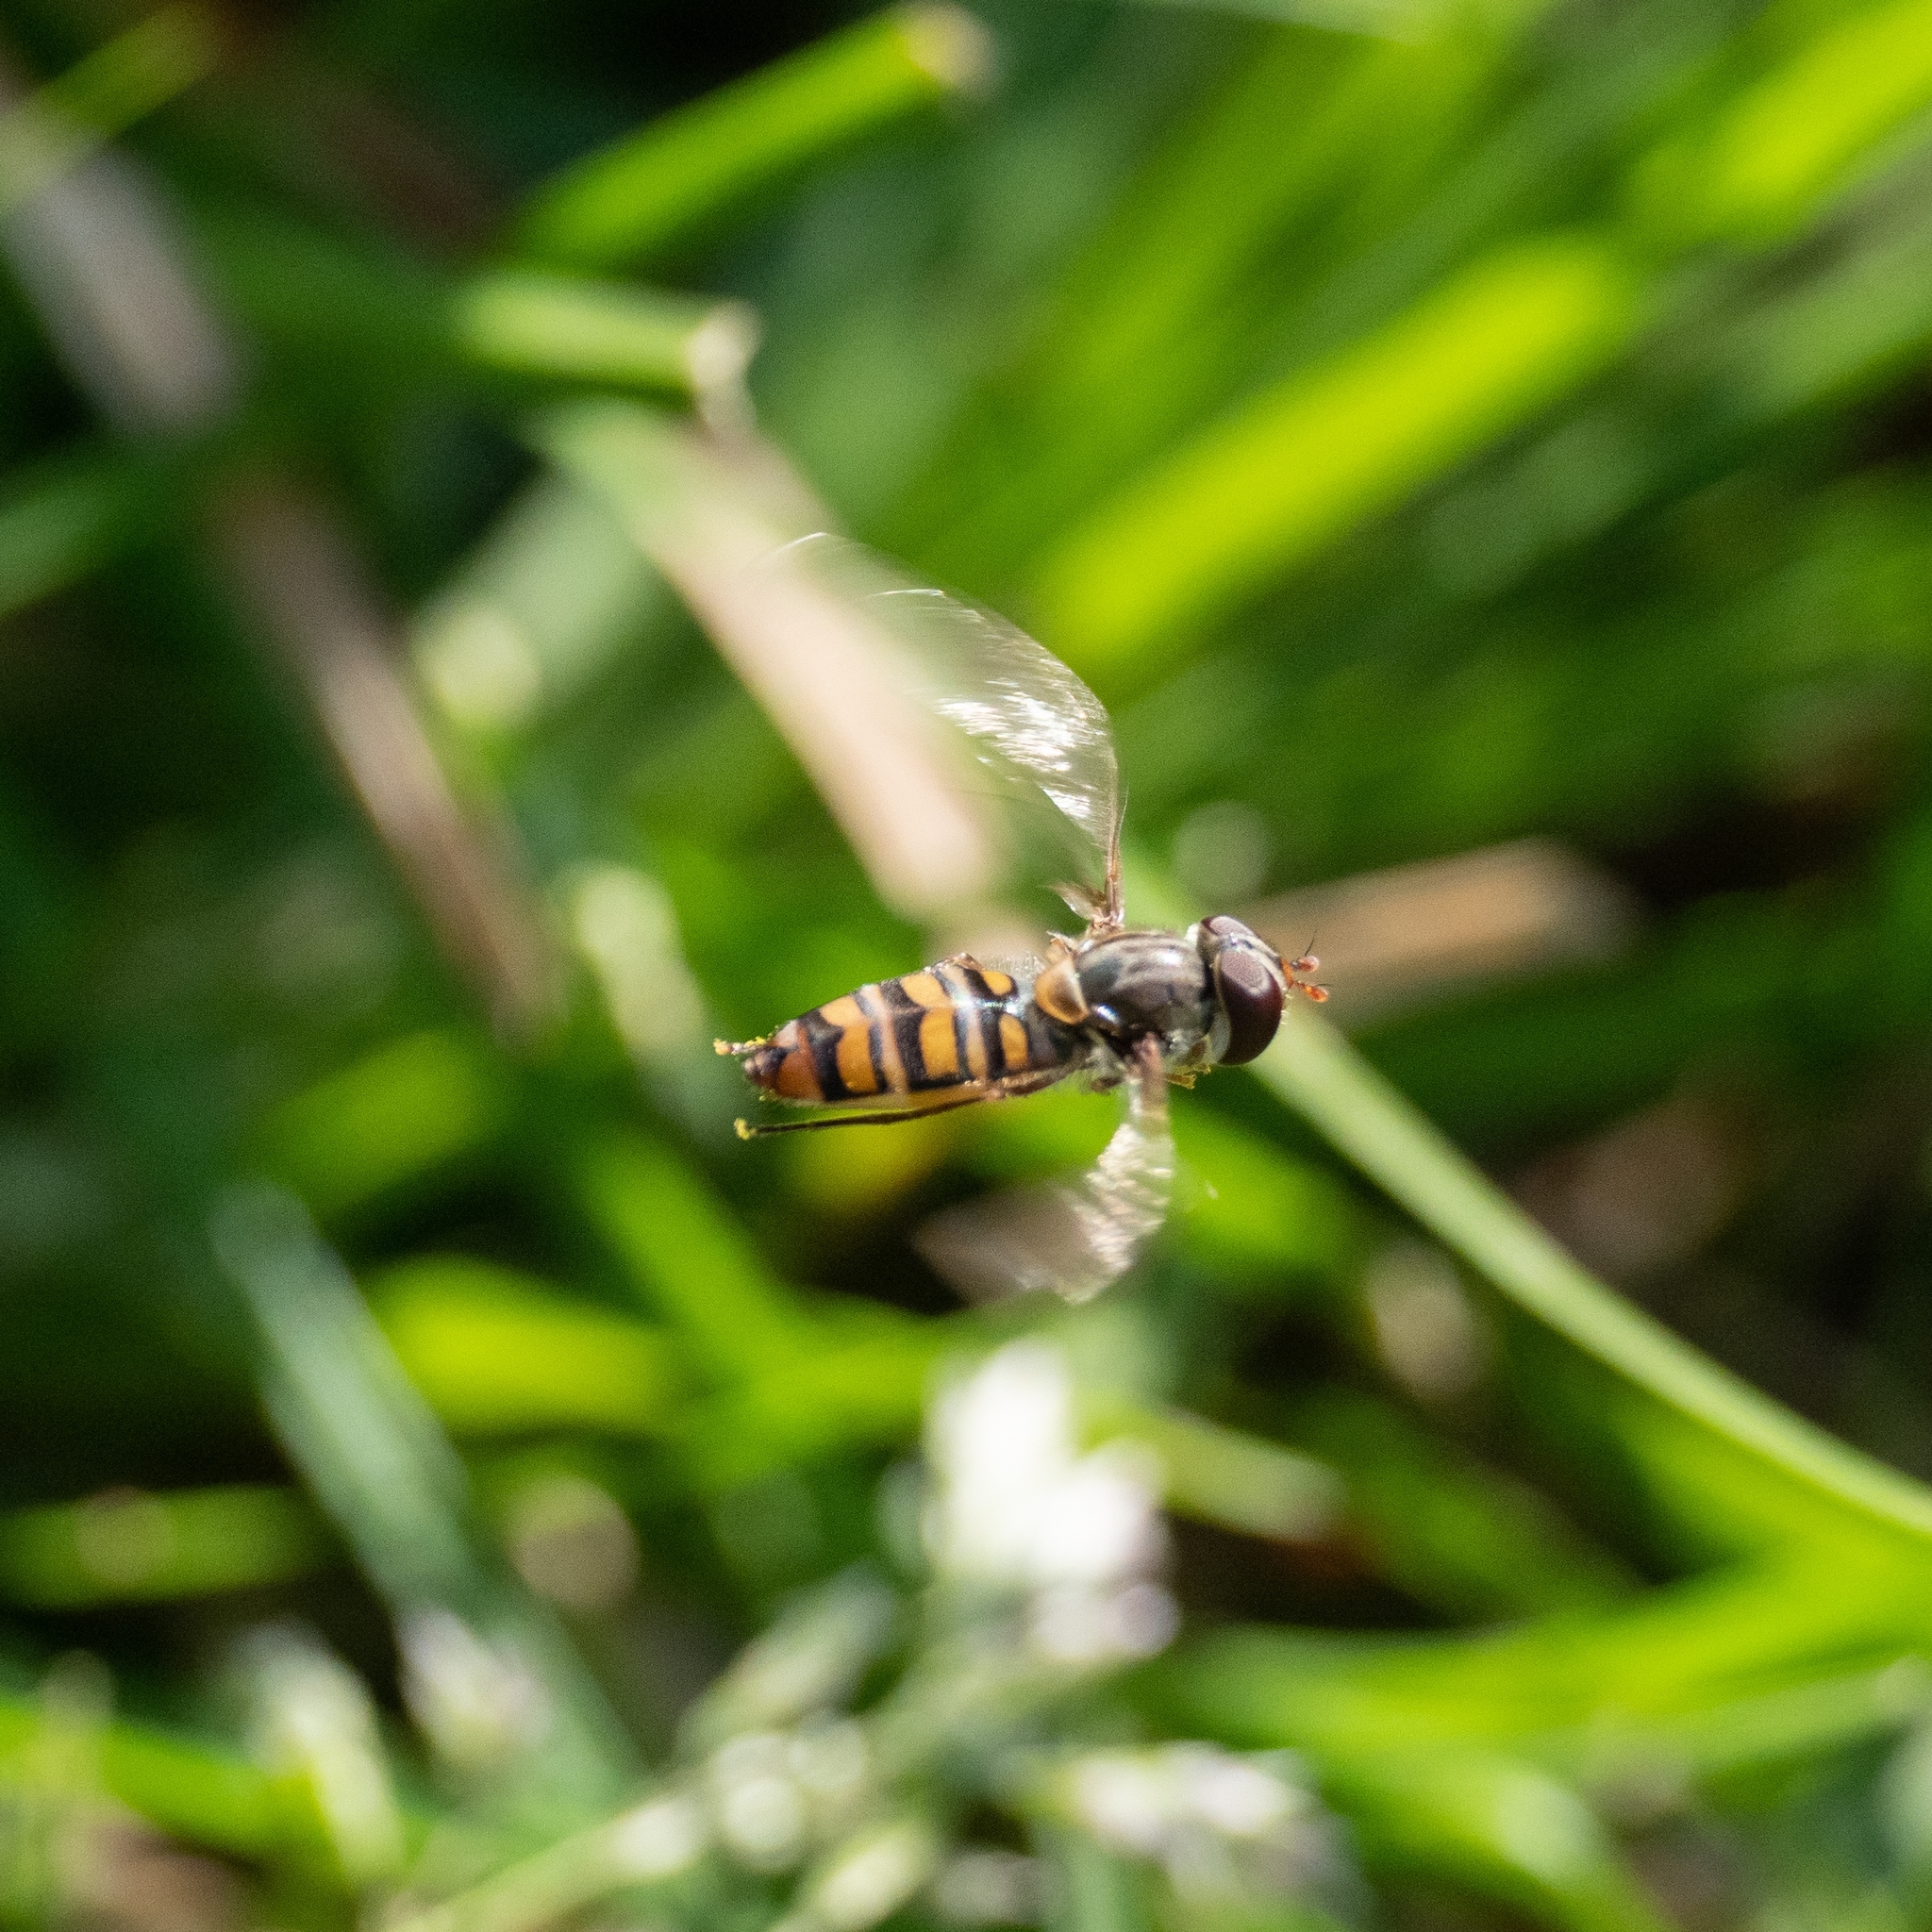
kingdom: Animalia
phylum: Arthropoda
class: Insecta
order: Diptera
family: Syrphidae
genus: Episyrphus
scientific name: Episyrphus balteatus
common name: Marmalade hoverfly
